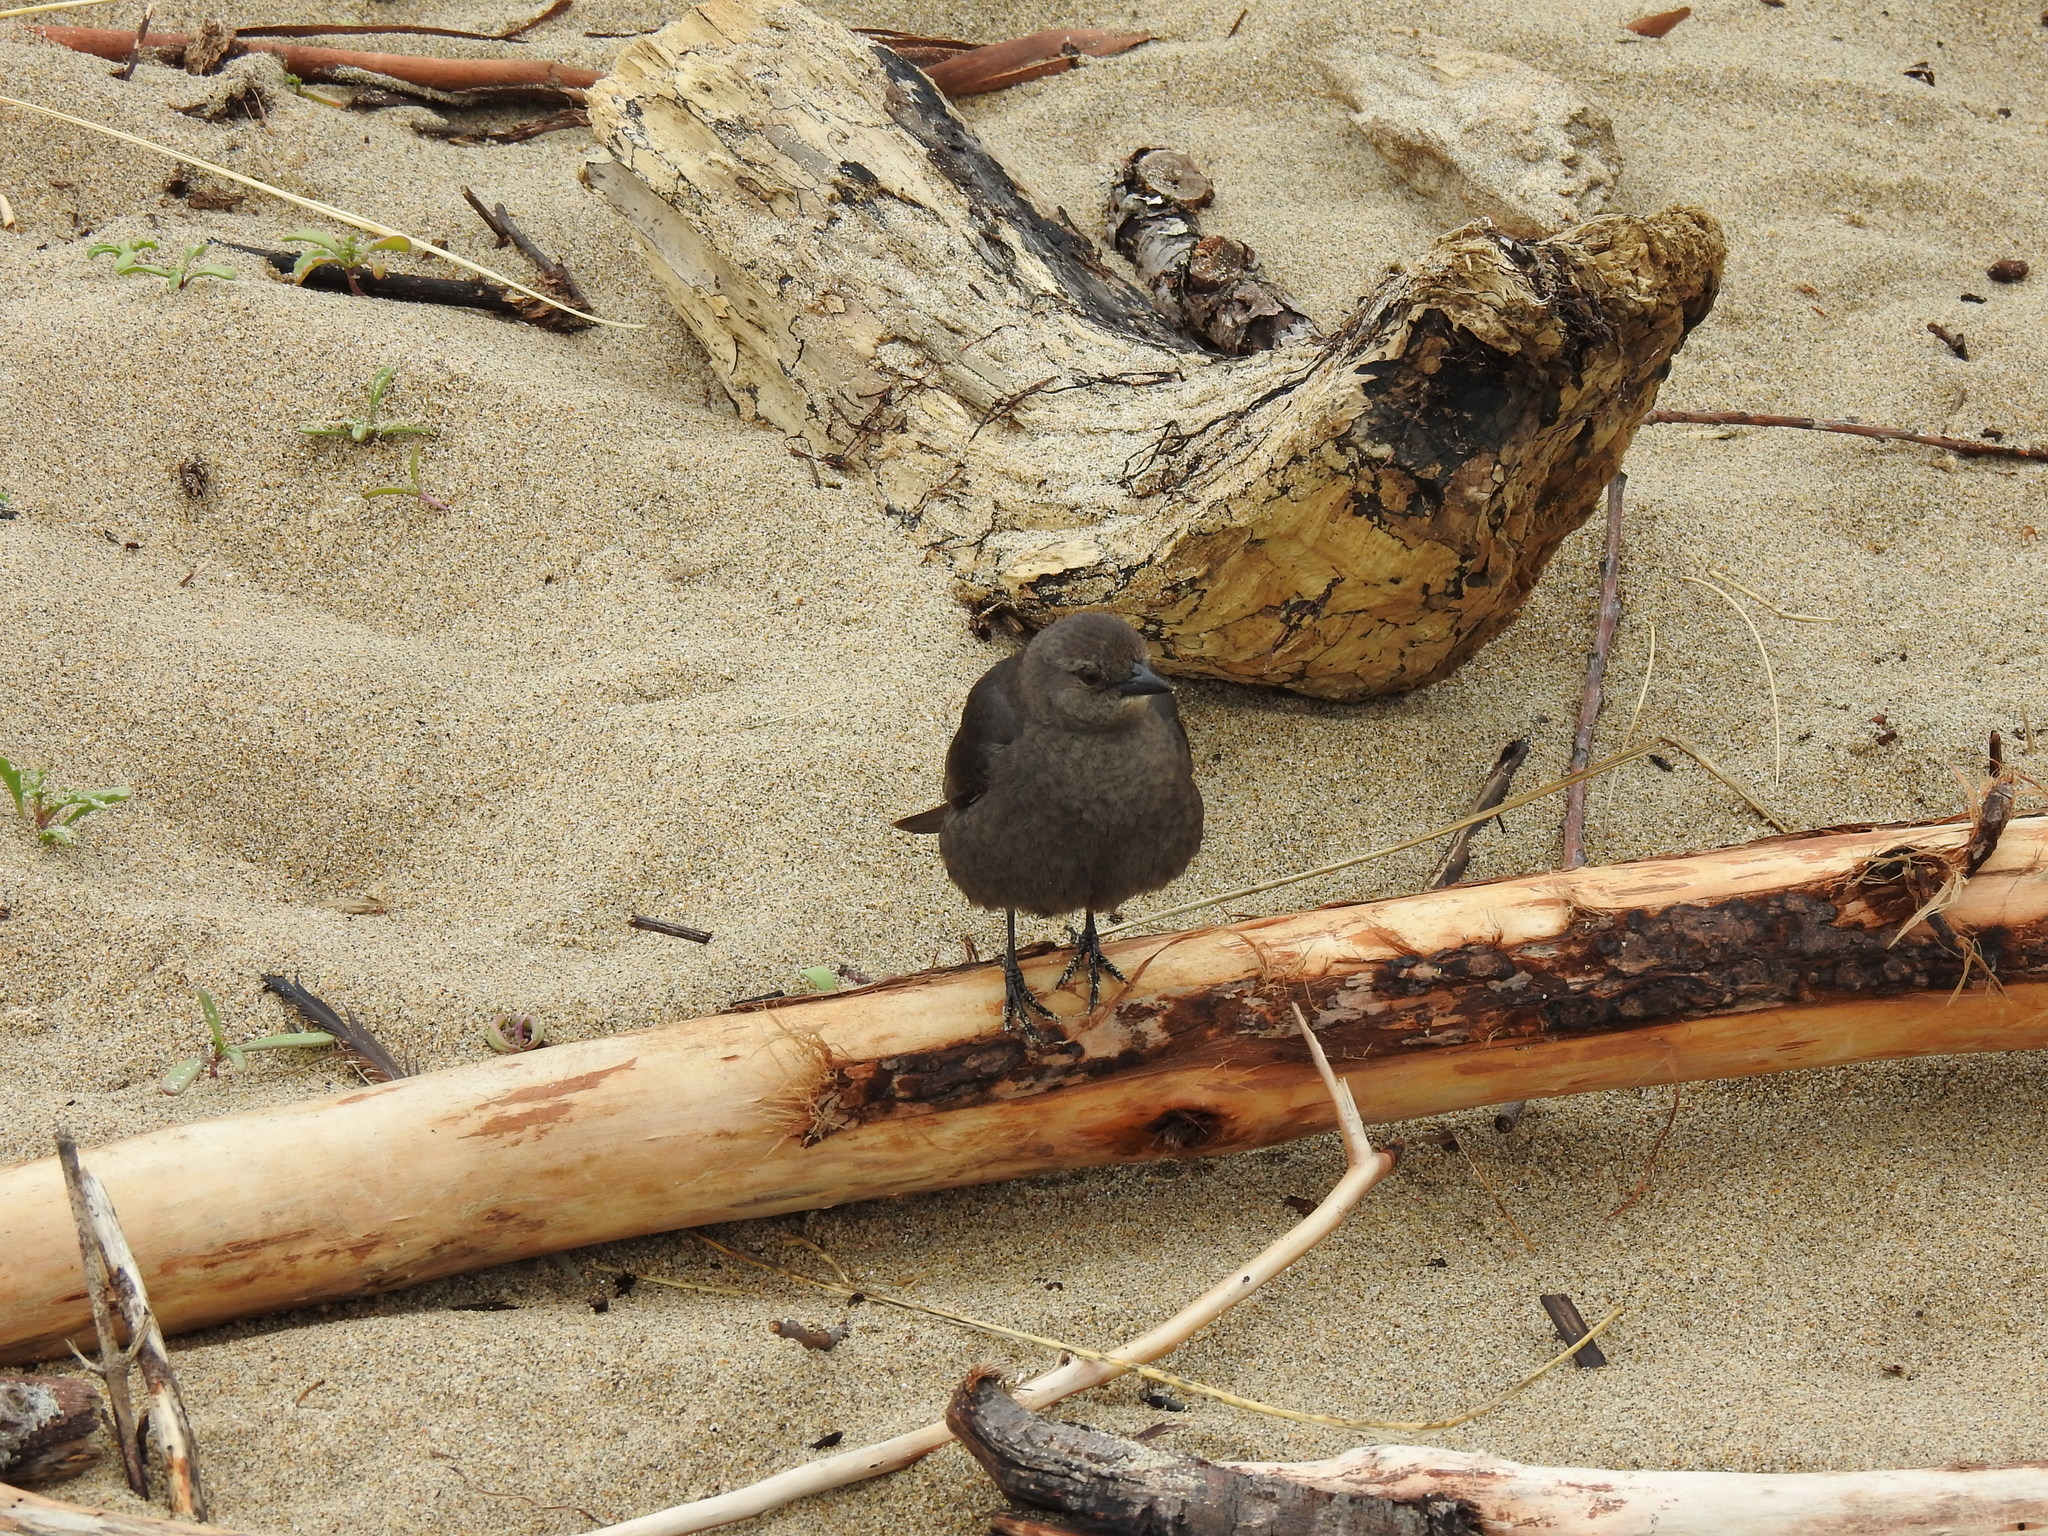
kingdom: Animalia
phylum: Chordata
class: Aves
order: Passeriformes
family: Icteridae
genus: Euphagus
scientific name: Euphagus cyanocephalus
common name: Brewer's blackbird
